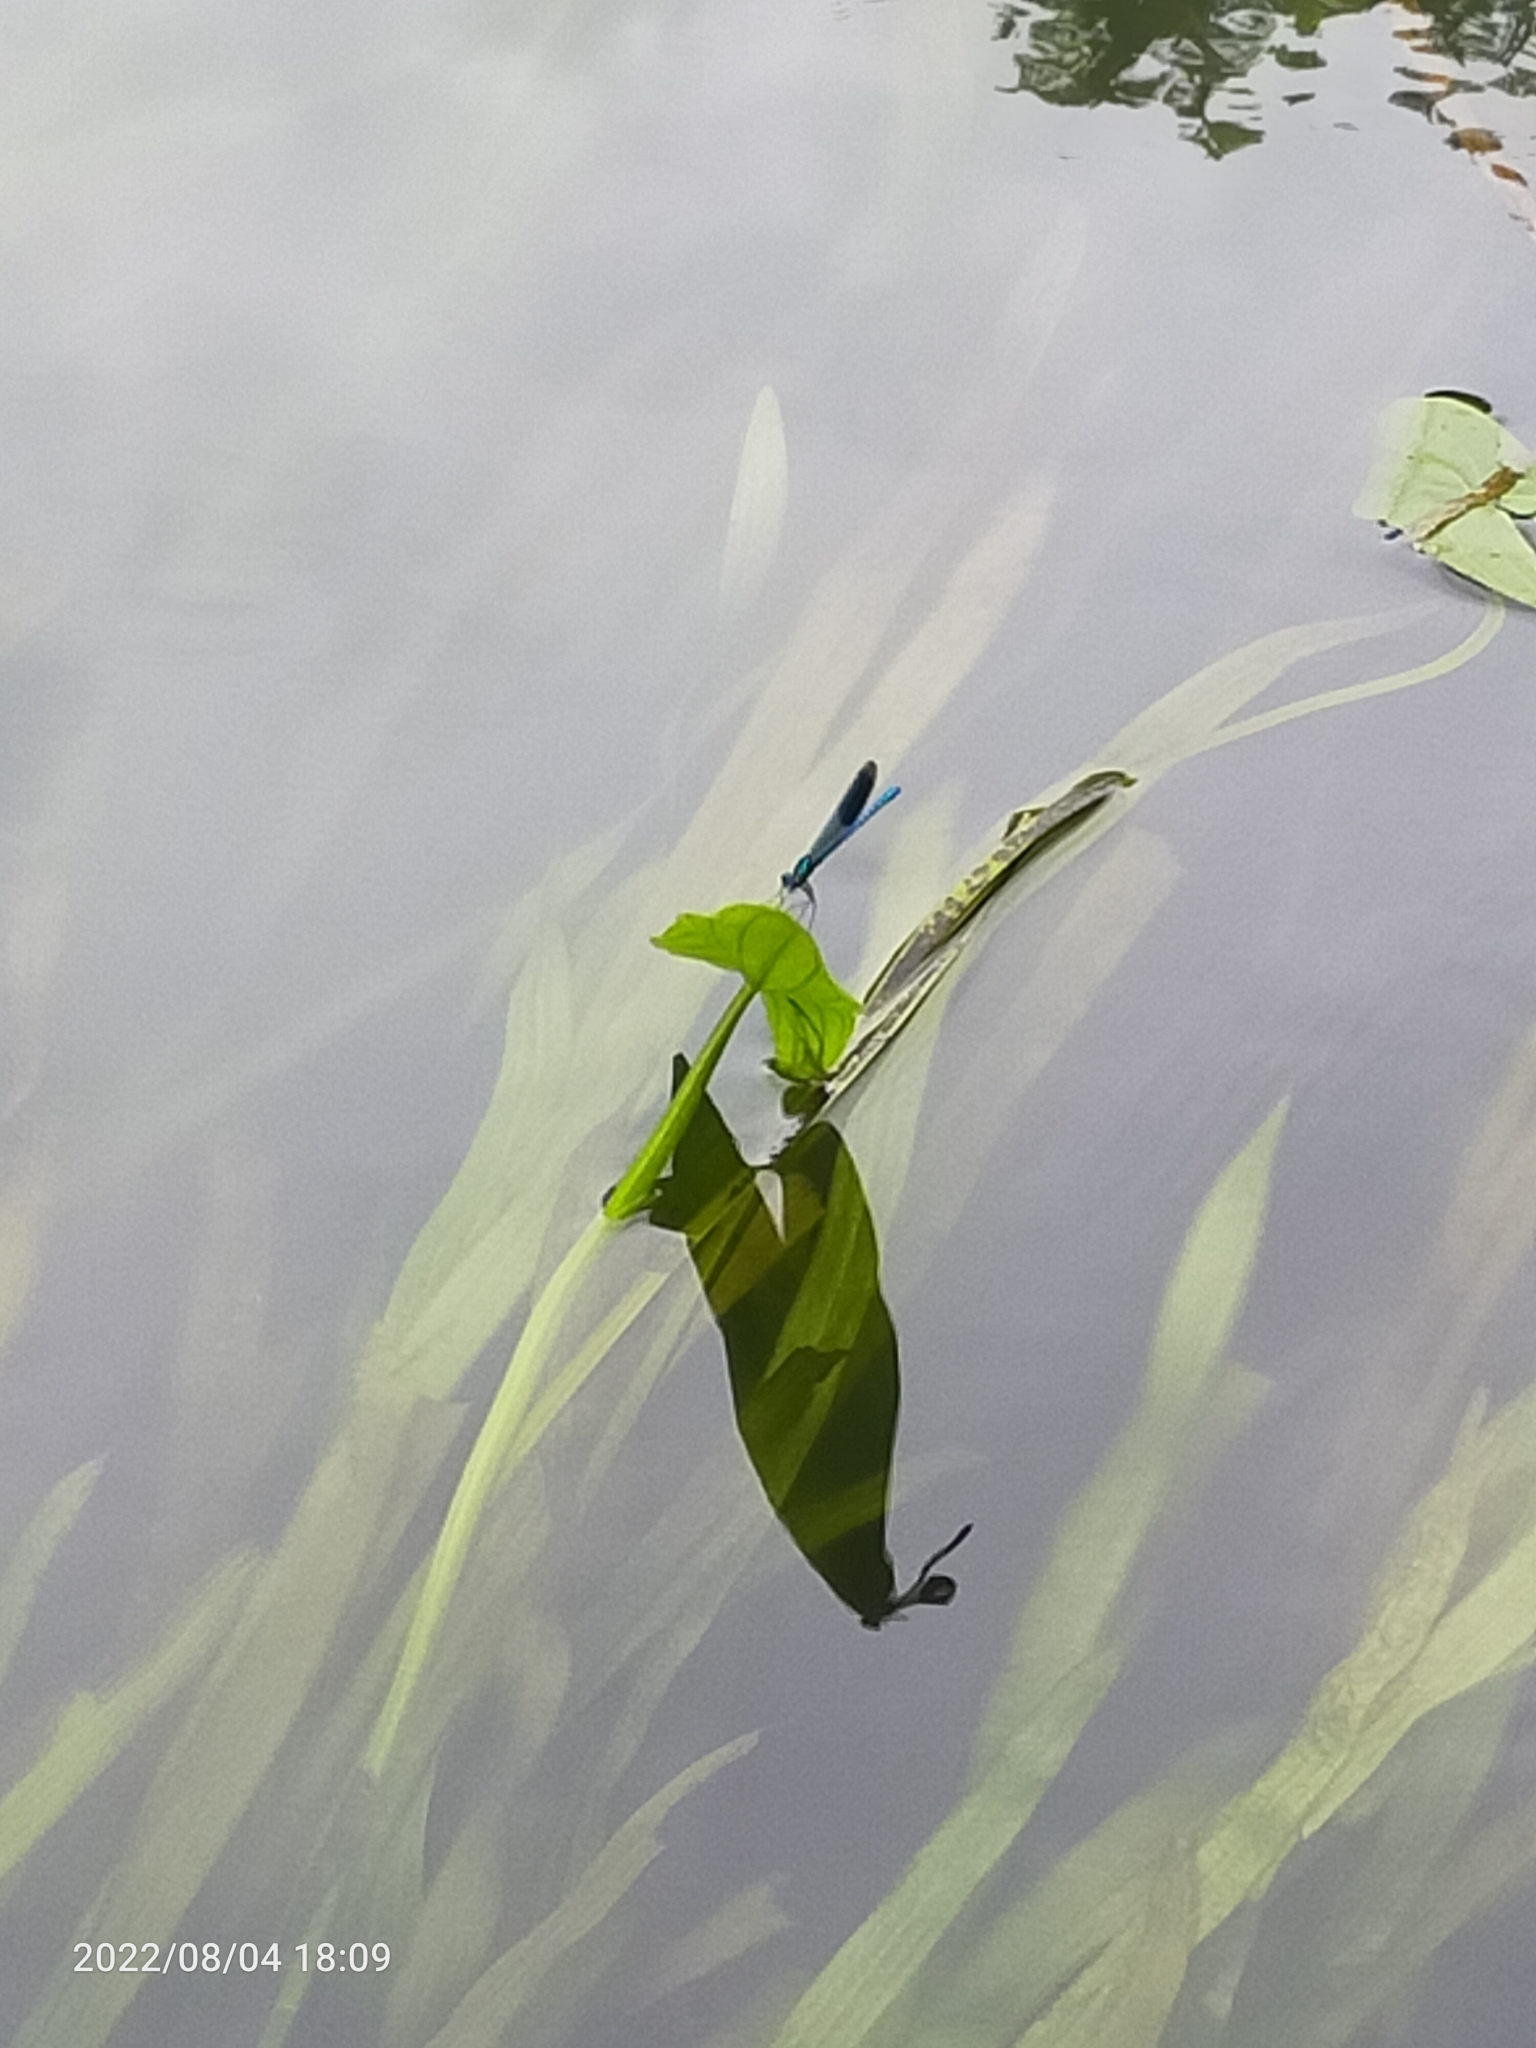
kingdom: Animalia
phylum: Arthropoda
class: Insecta
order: Odonata
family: Calopterygidae
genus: Calopteryx
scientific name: Calopteryx splendens
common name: Banded demoiselle
